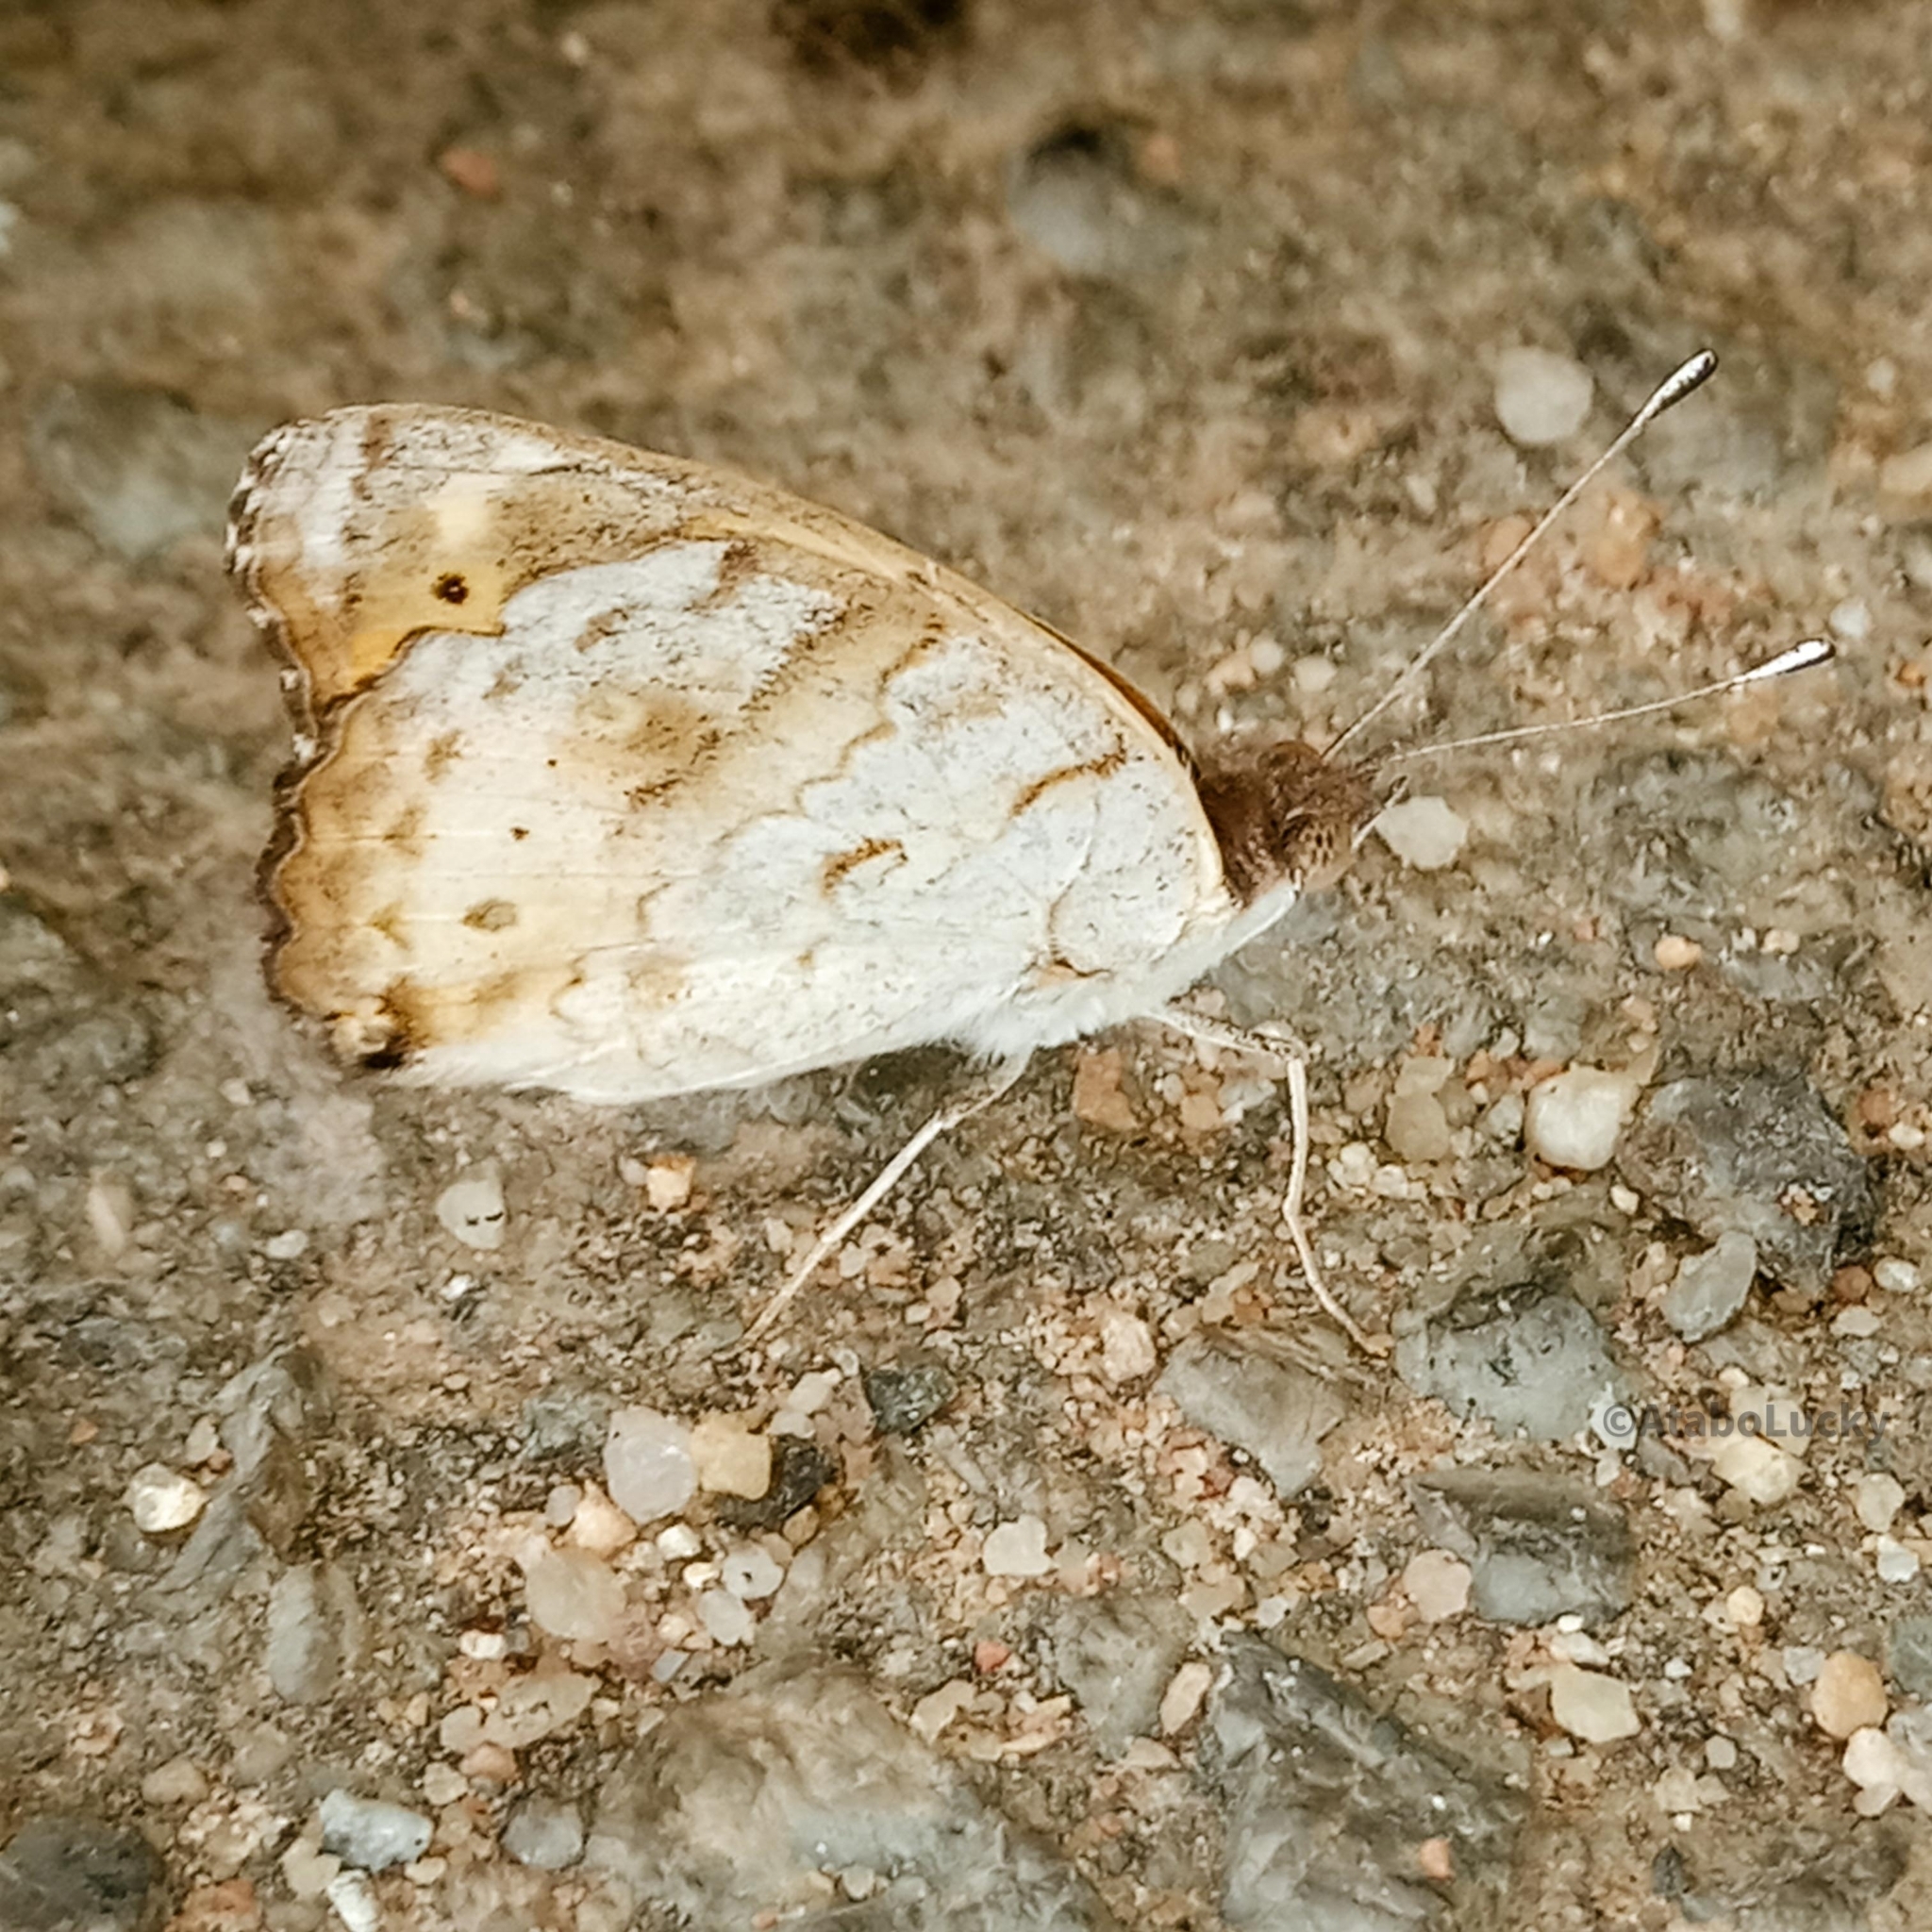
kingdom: Animalia
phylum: Arthropoda
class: Insecta
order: Lepidoptera
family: Nymphalidae
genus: Junonia
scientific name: Junonia hierta
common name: Yellow pansy
